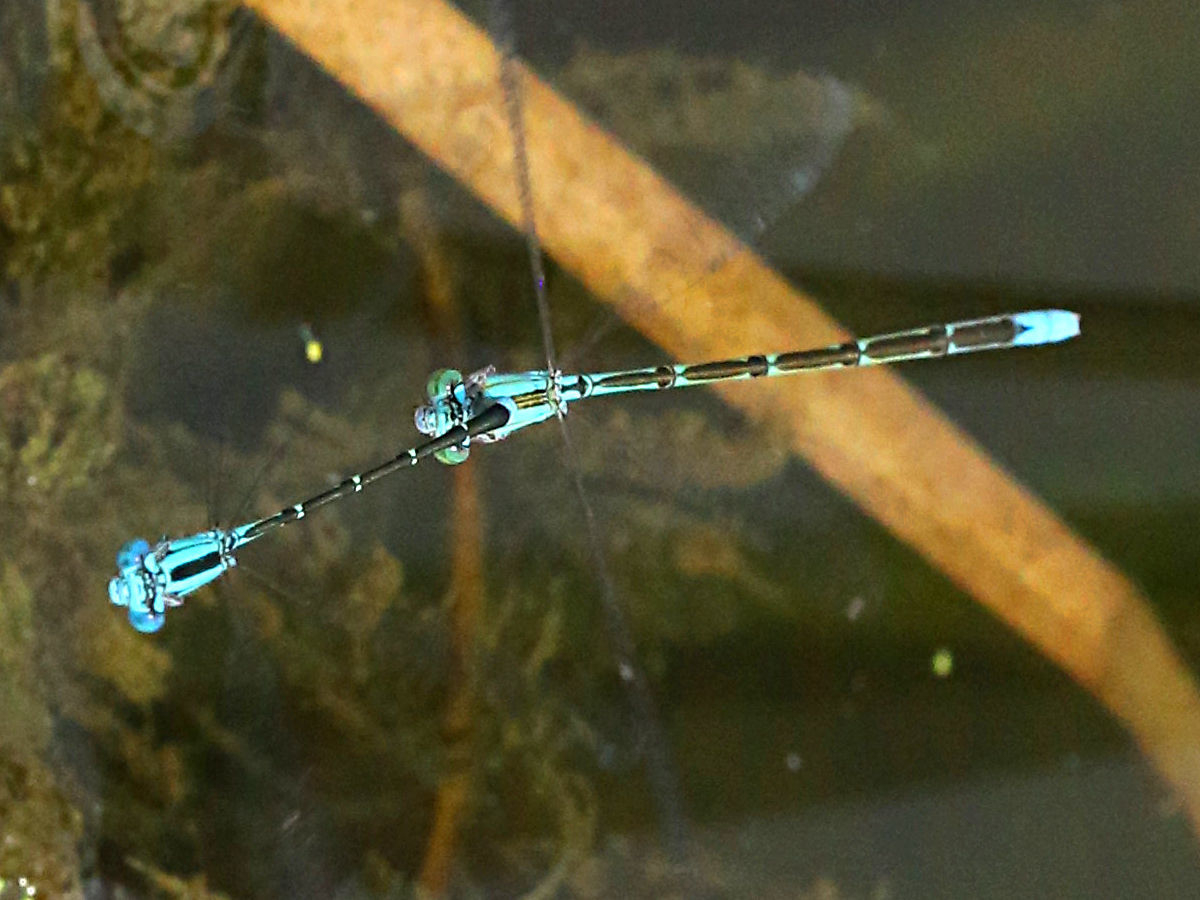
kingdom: Animalia
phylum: Arthropoda
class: Insecta
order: Odonata
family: Coenagrionidae
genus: Enallagma
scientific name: Enallagma traviatum
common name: Slender bluet
